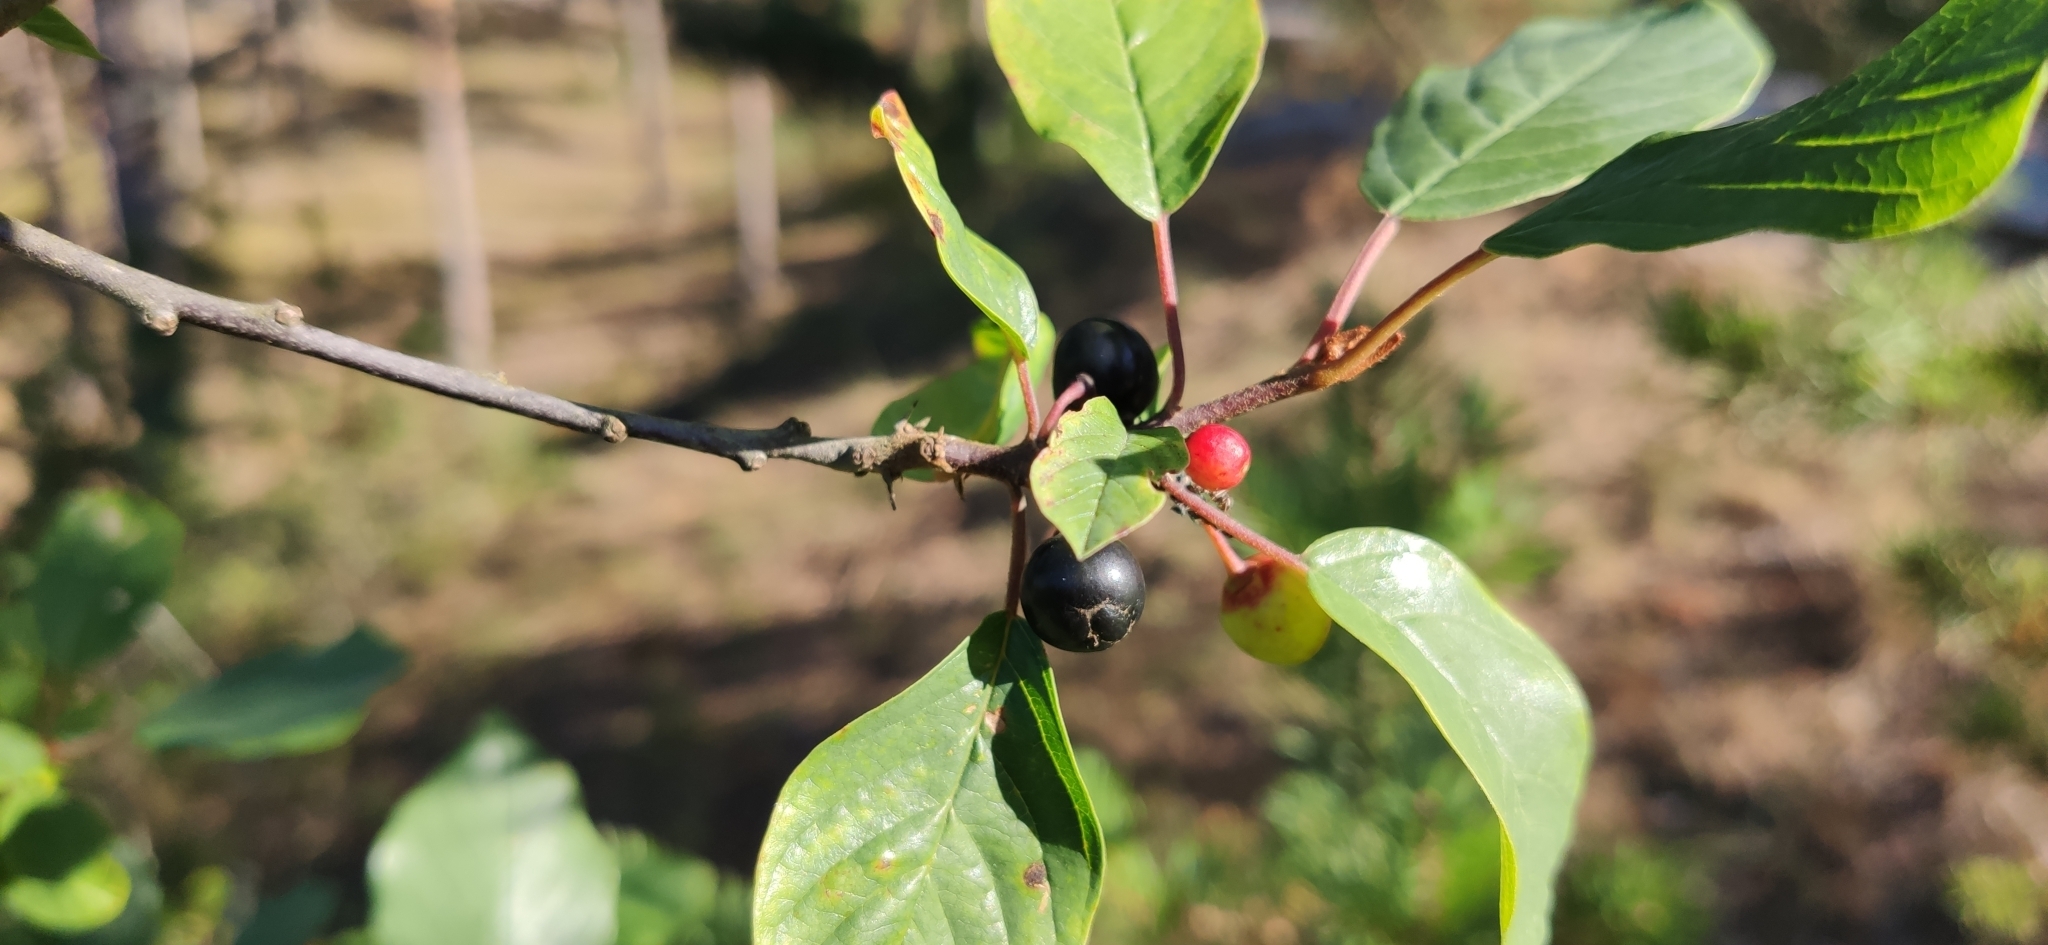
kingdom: Plantae
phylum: Tracheophyta
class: Magnoliopsida
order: Rosales
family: Rhamnaceae
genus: Frangula
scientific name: Frangula alnus
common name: Alder buckthorn
